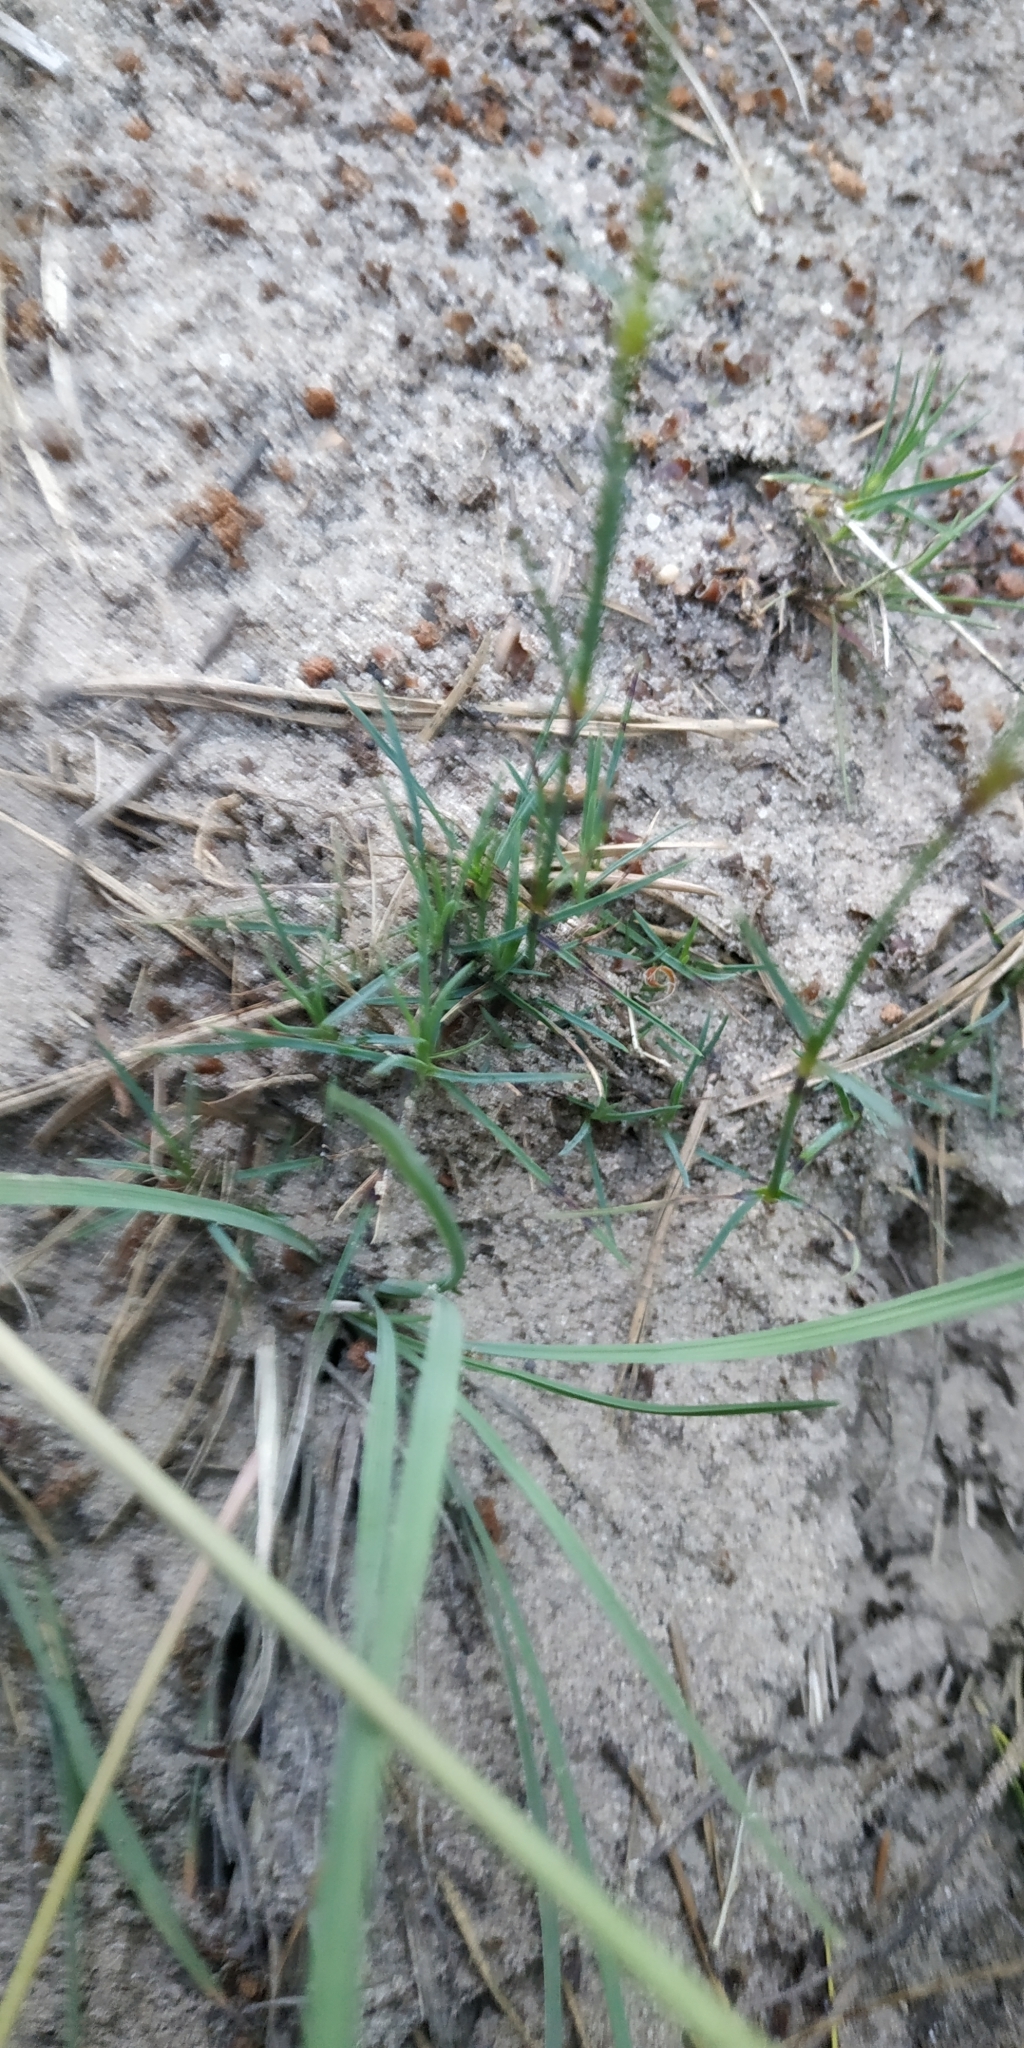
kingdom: Plantae
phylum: Tracheophyta
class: Magnoliopsida
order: Caryophyllales
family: Caryophyllaceae
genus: Dianthus
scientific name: Dianthus arenarius
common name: Stone pink
